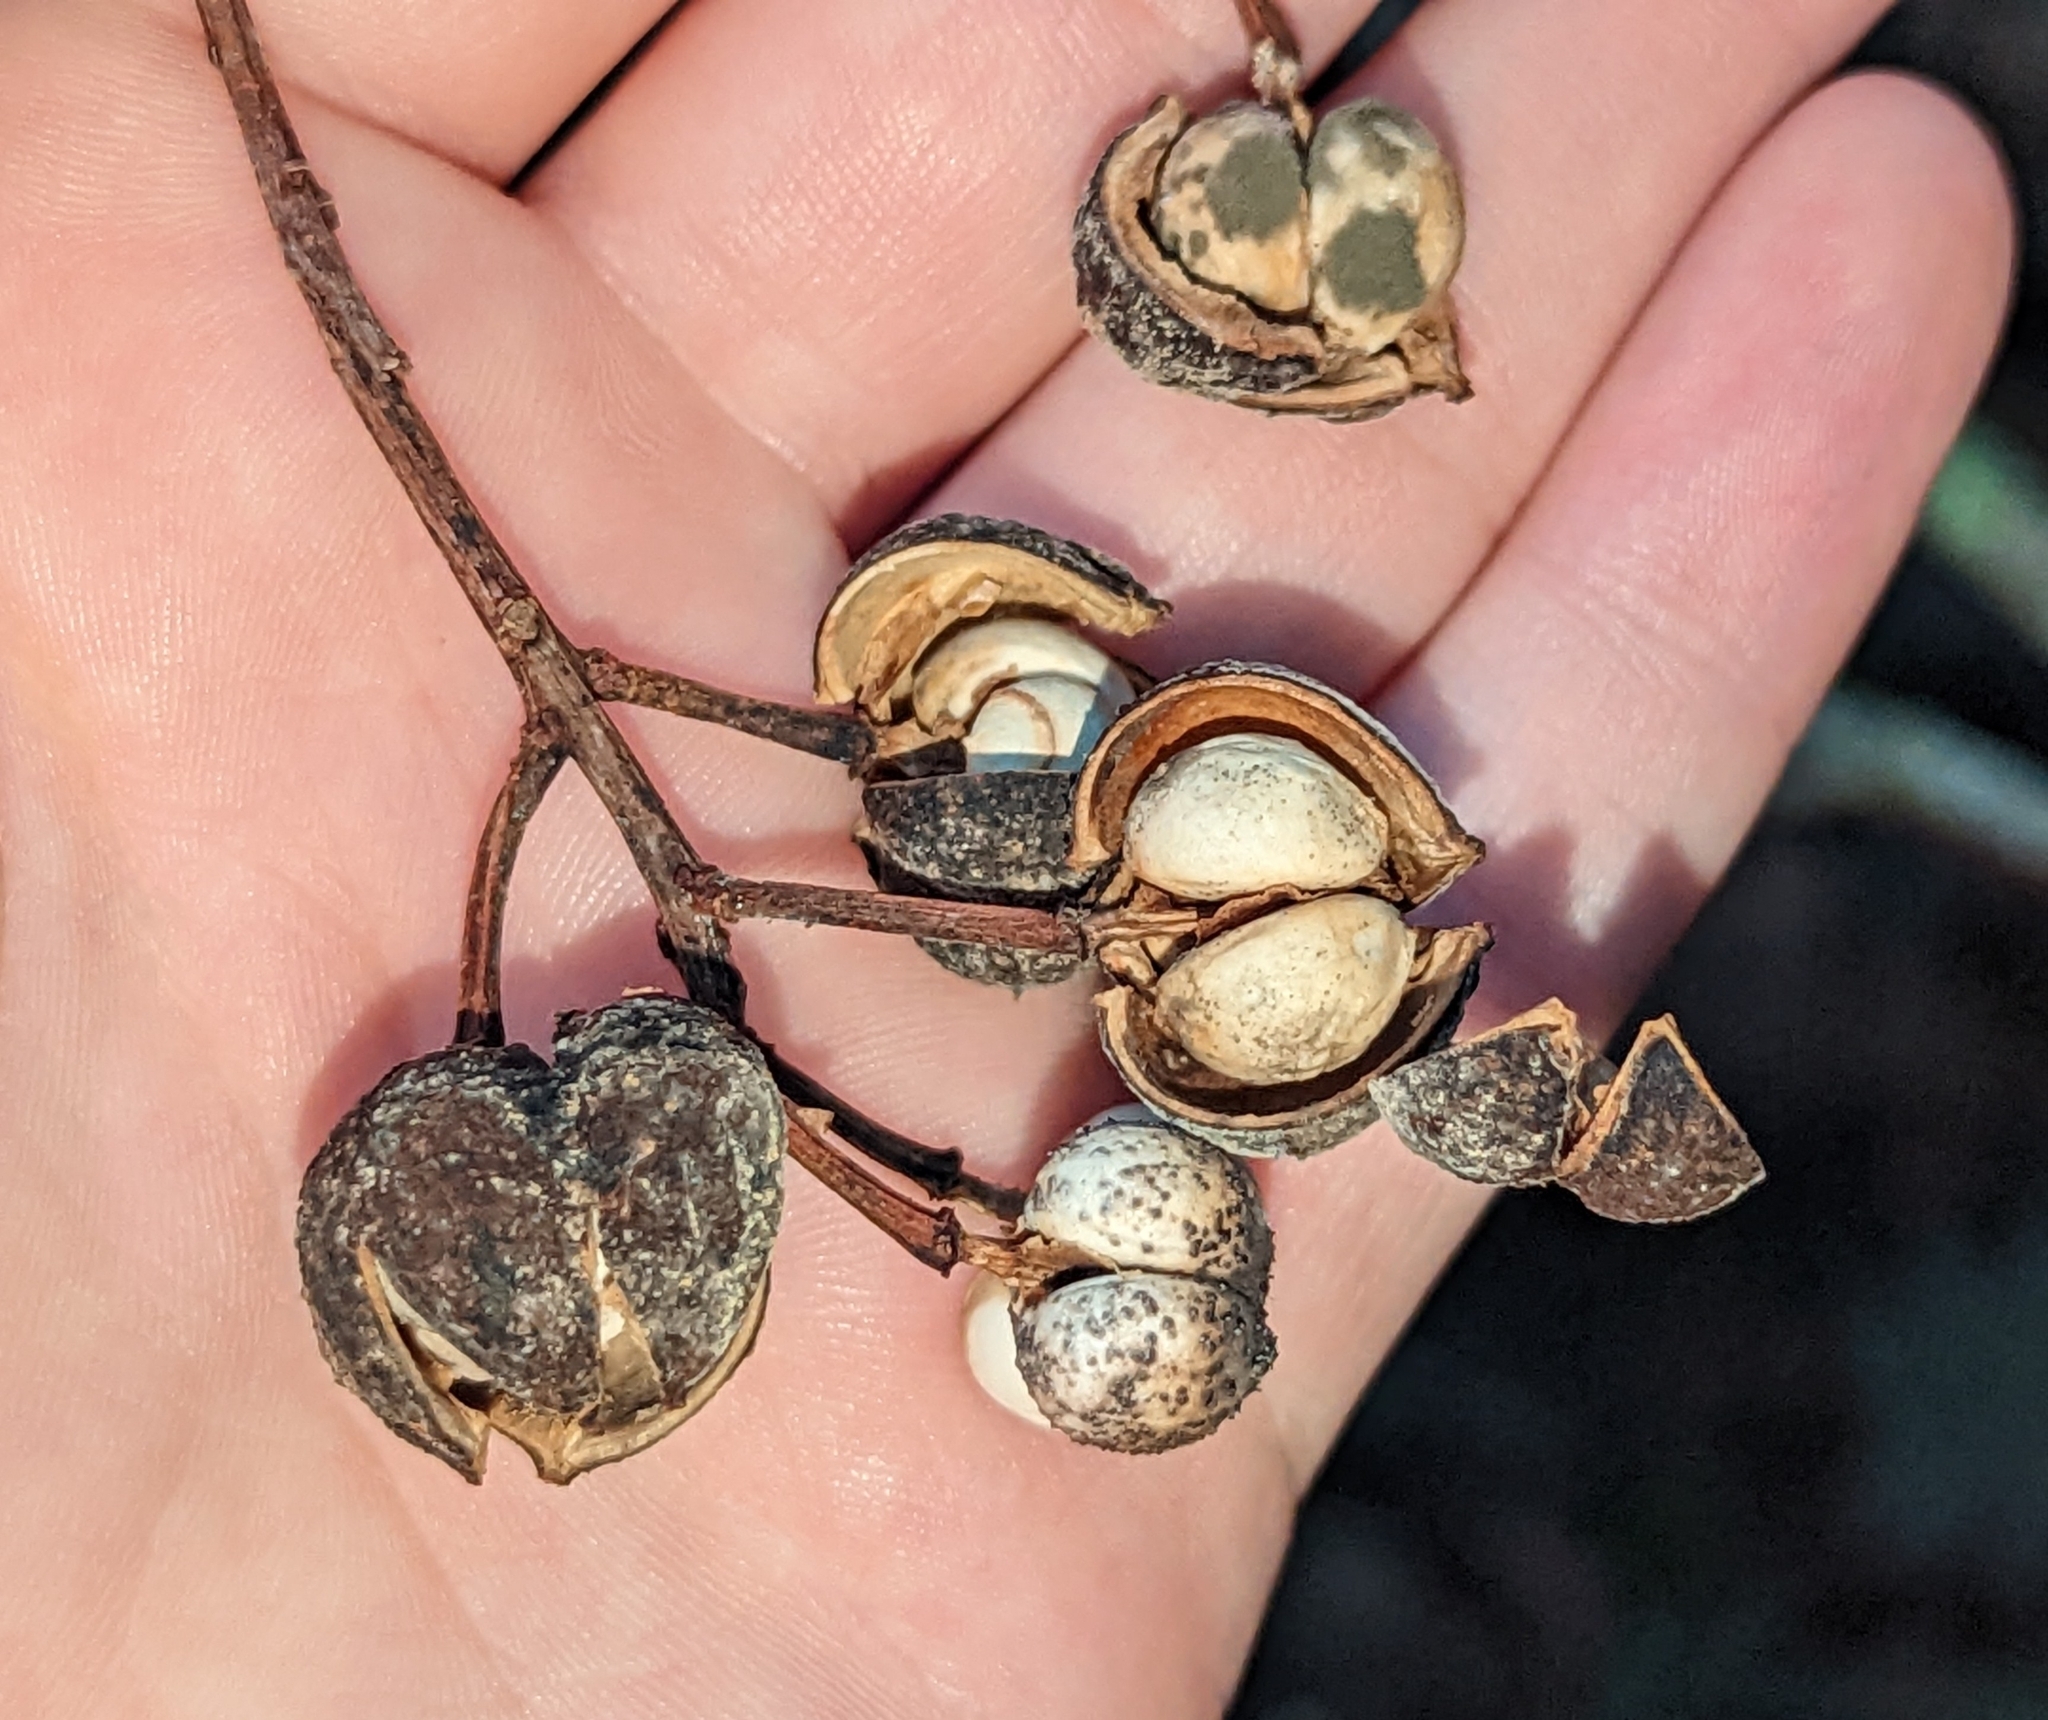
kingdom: Plantae
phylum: Tracheophyta
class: Magnoliopsida
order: Malpighiales
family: Euphorbiaceae
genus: Triadica
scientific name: Triadica sebifera
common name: Chinese tallow
